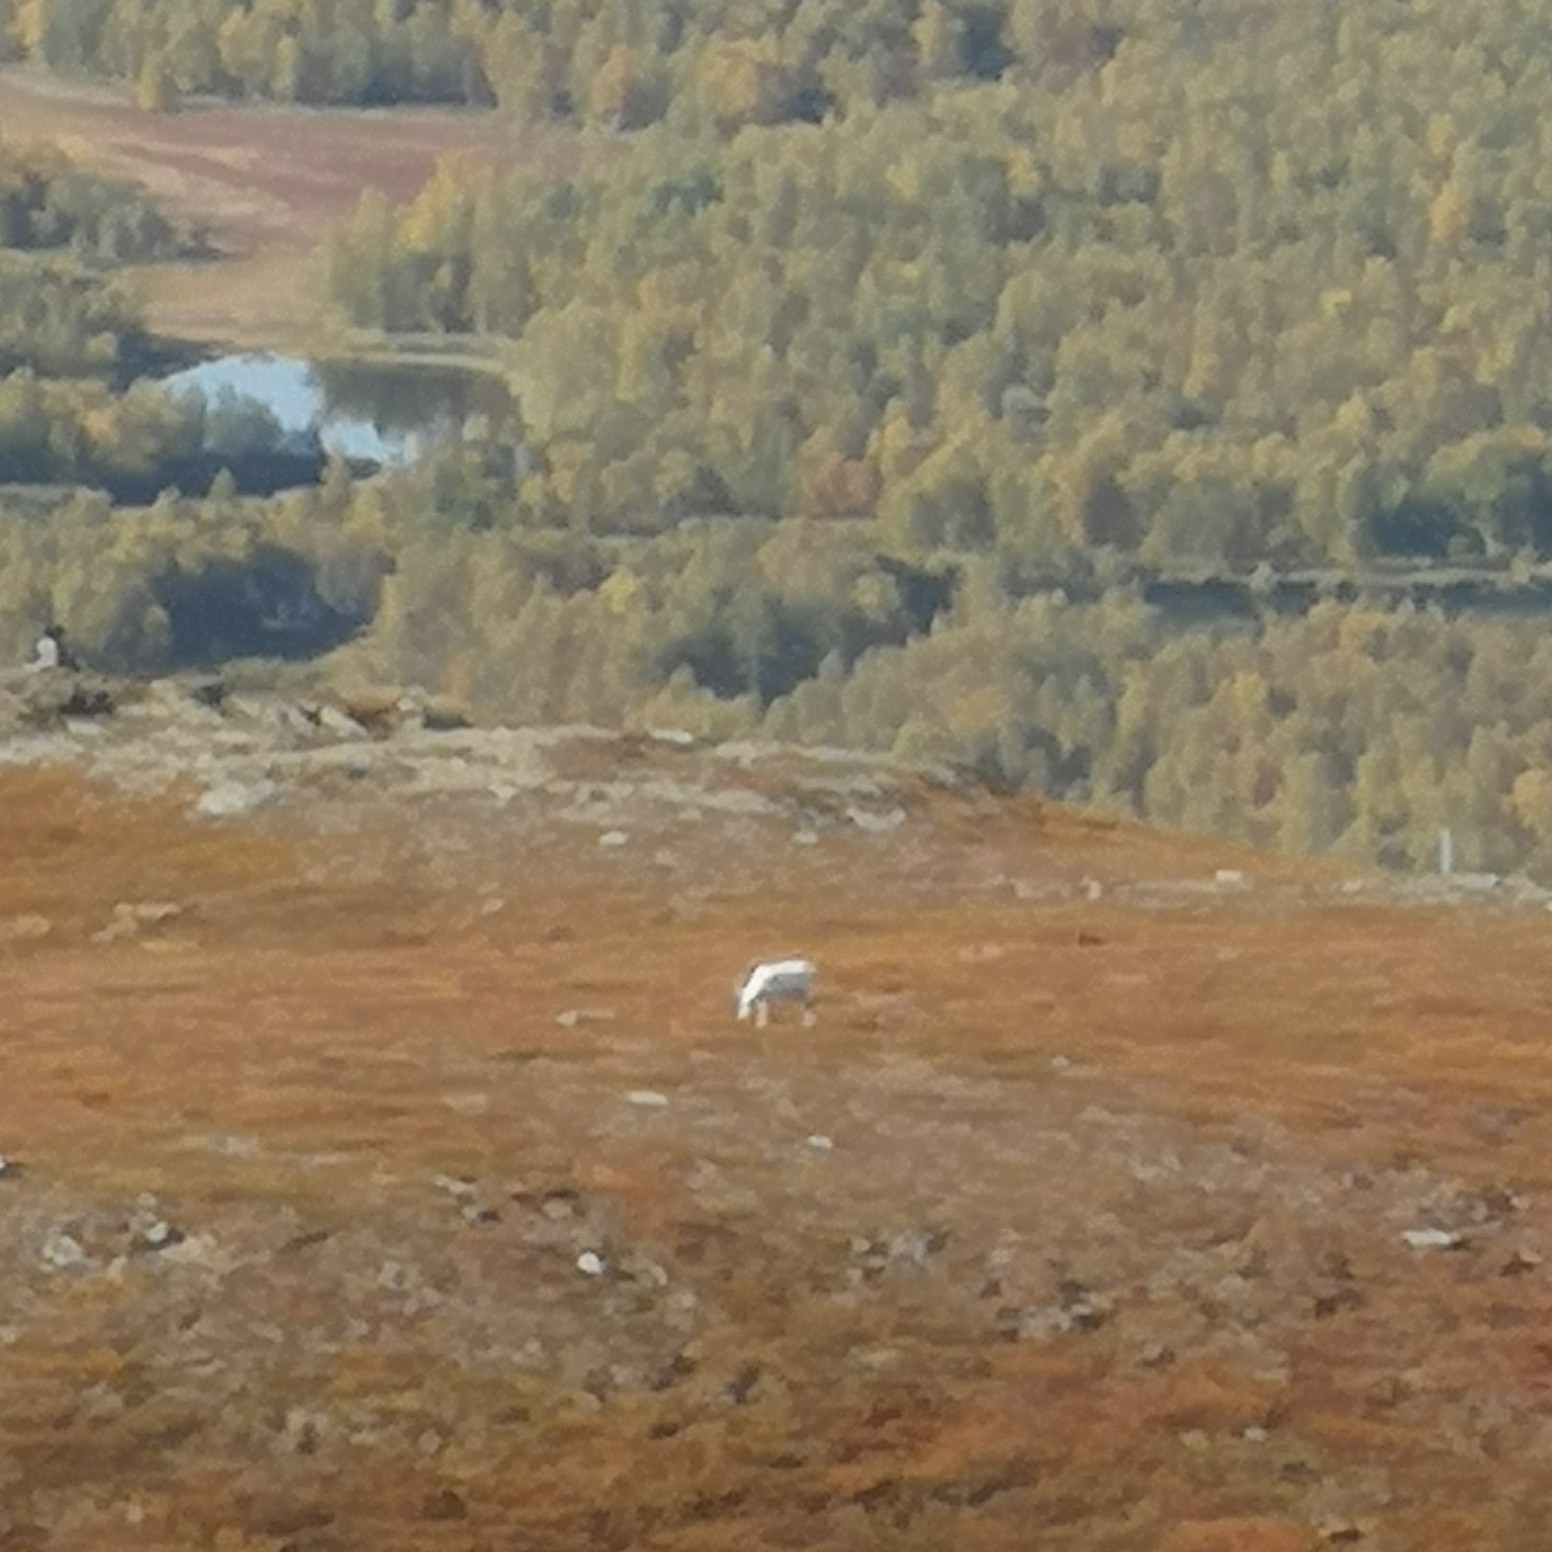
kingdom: Animalia
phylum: Chordata
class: Mammalia
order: Artiodactyla
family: Cervidae
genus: Rangifer
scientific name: Rangifer tarandus
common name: Reindeer
